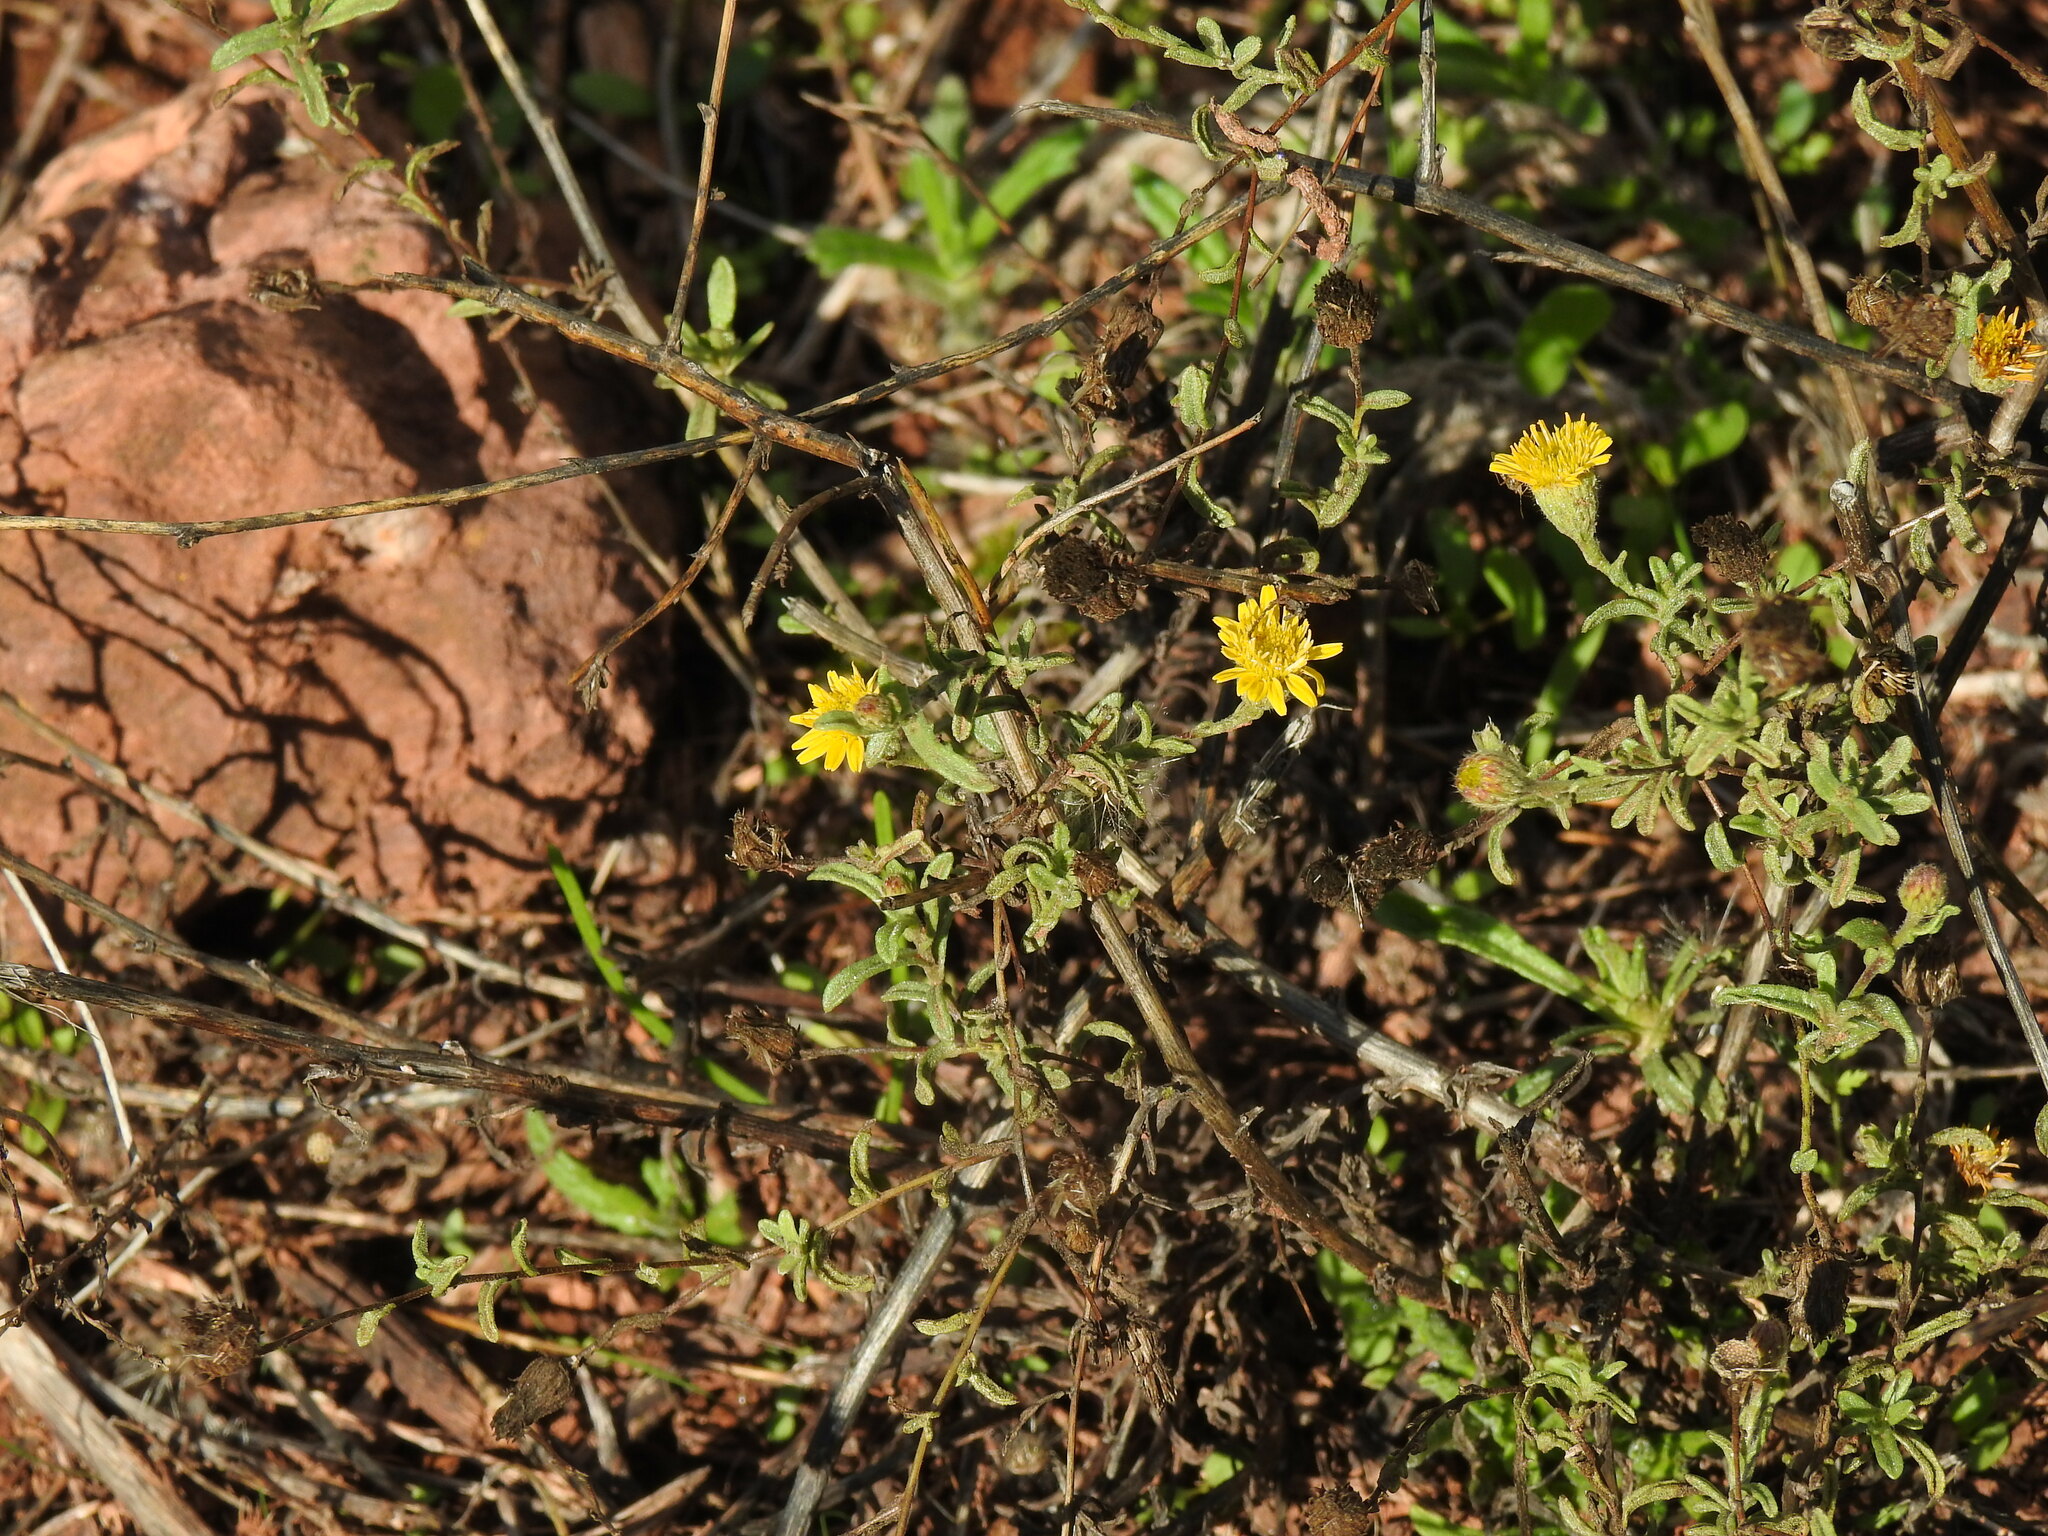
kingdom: Plantae
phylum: Tracheophyta
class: Magnoliopsida
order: Asterales
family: Asteraceae
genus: Pulicaria
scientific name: Pulicaria paludosa
